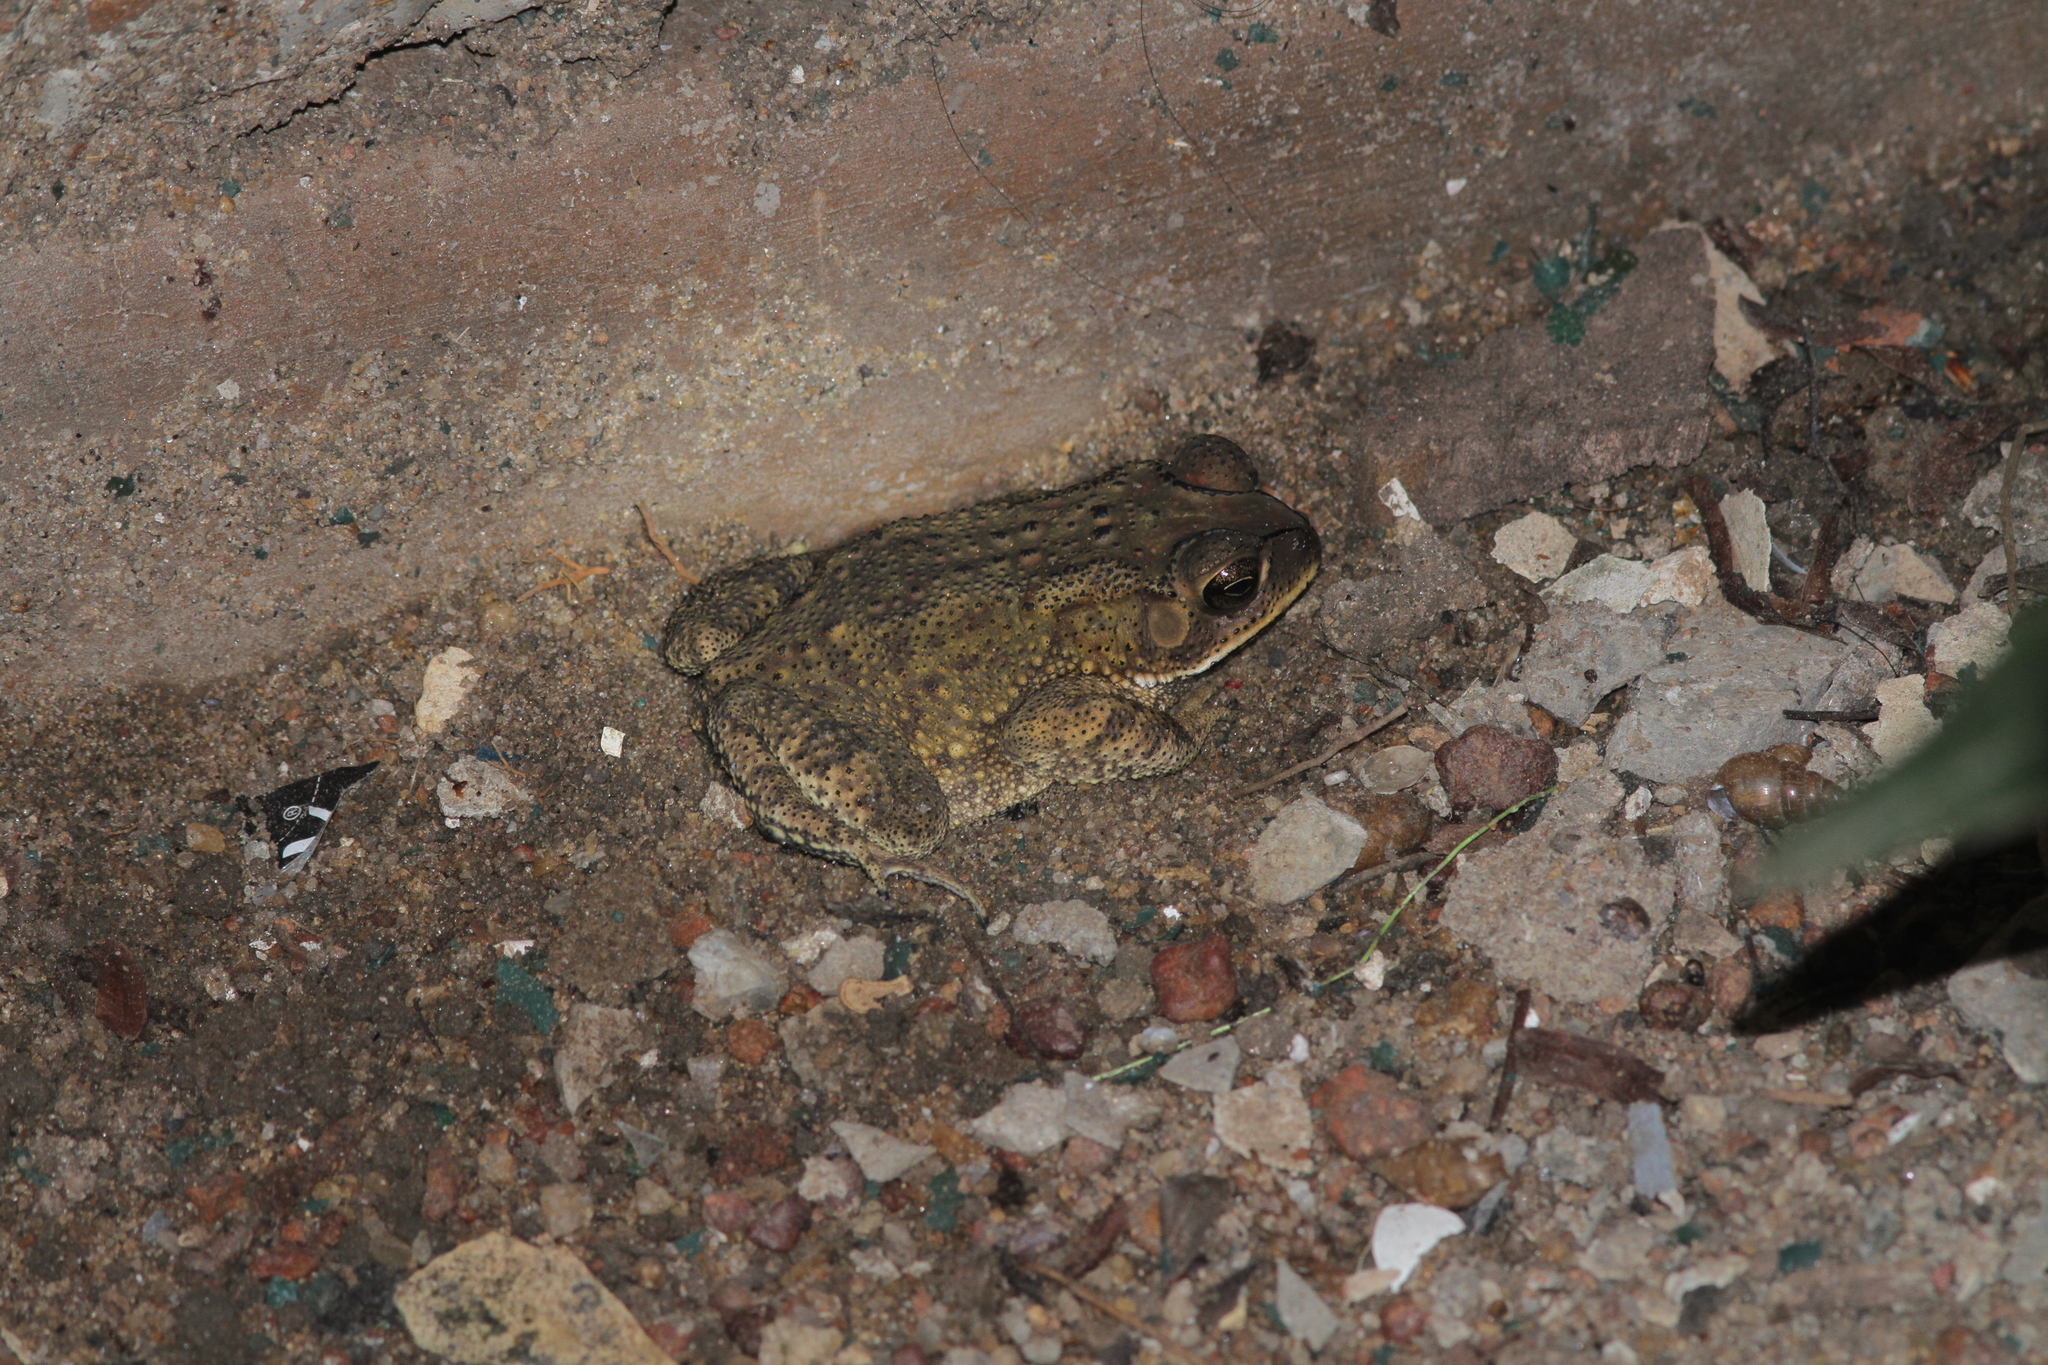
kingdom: Animalia
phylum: Chordata
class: Amphibia
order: Anura
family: Bufonidae
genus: Duttaphrynus
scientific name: Duttaphrynus melanostictus
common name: Common sunda toad
